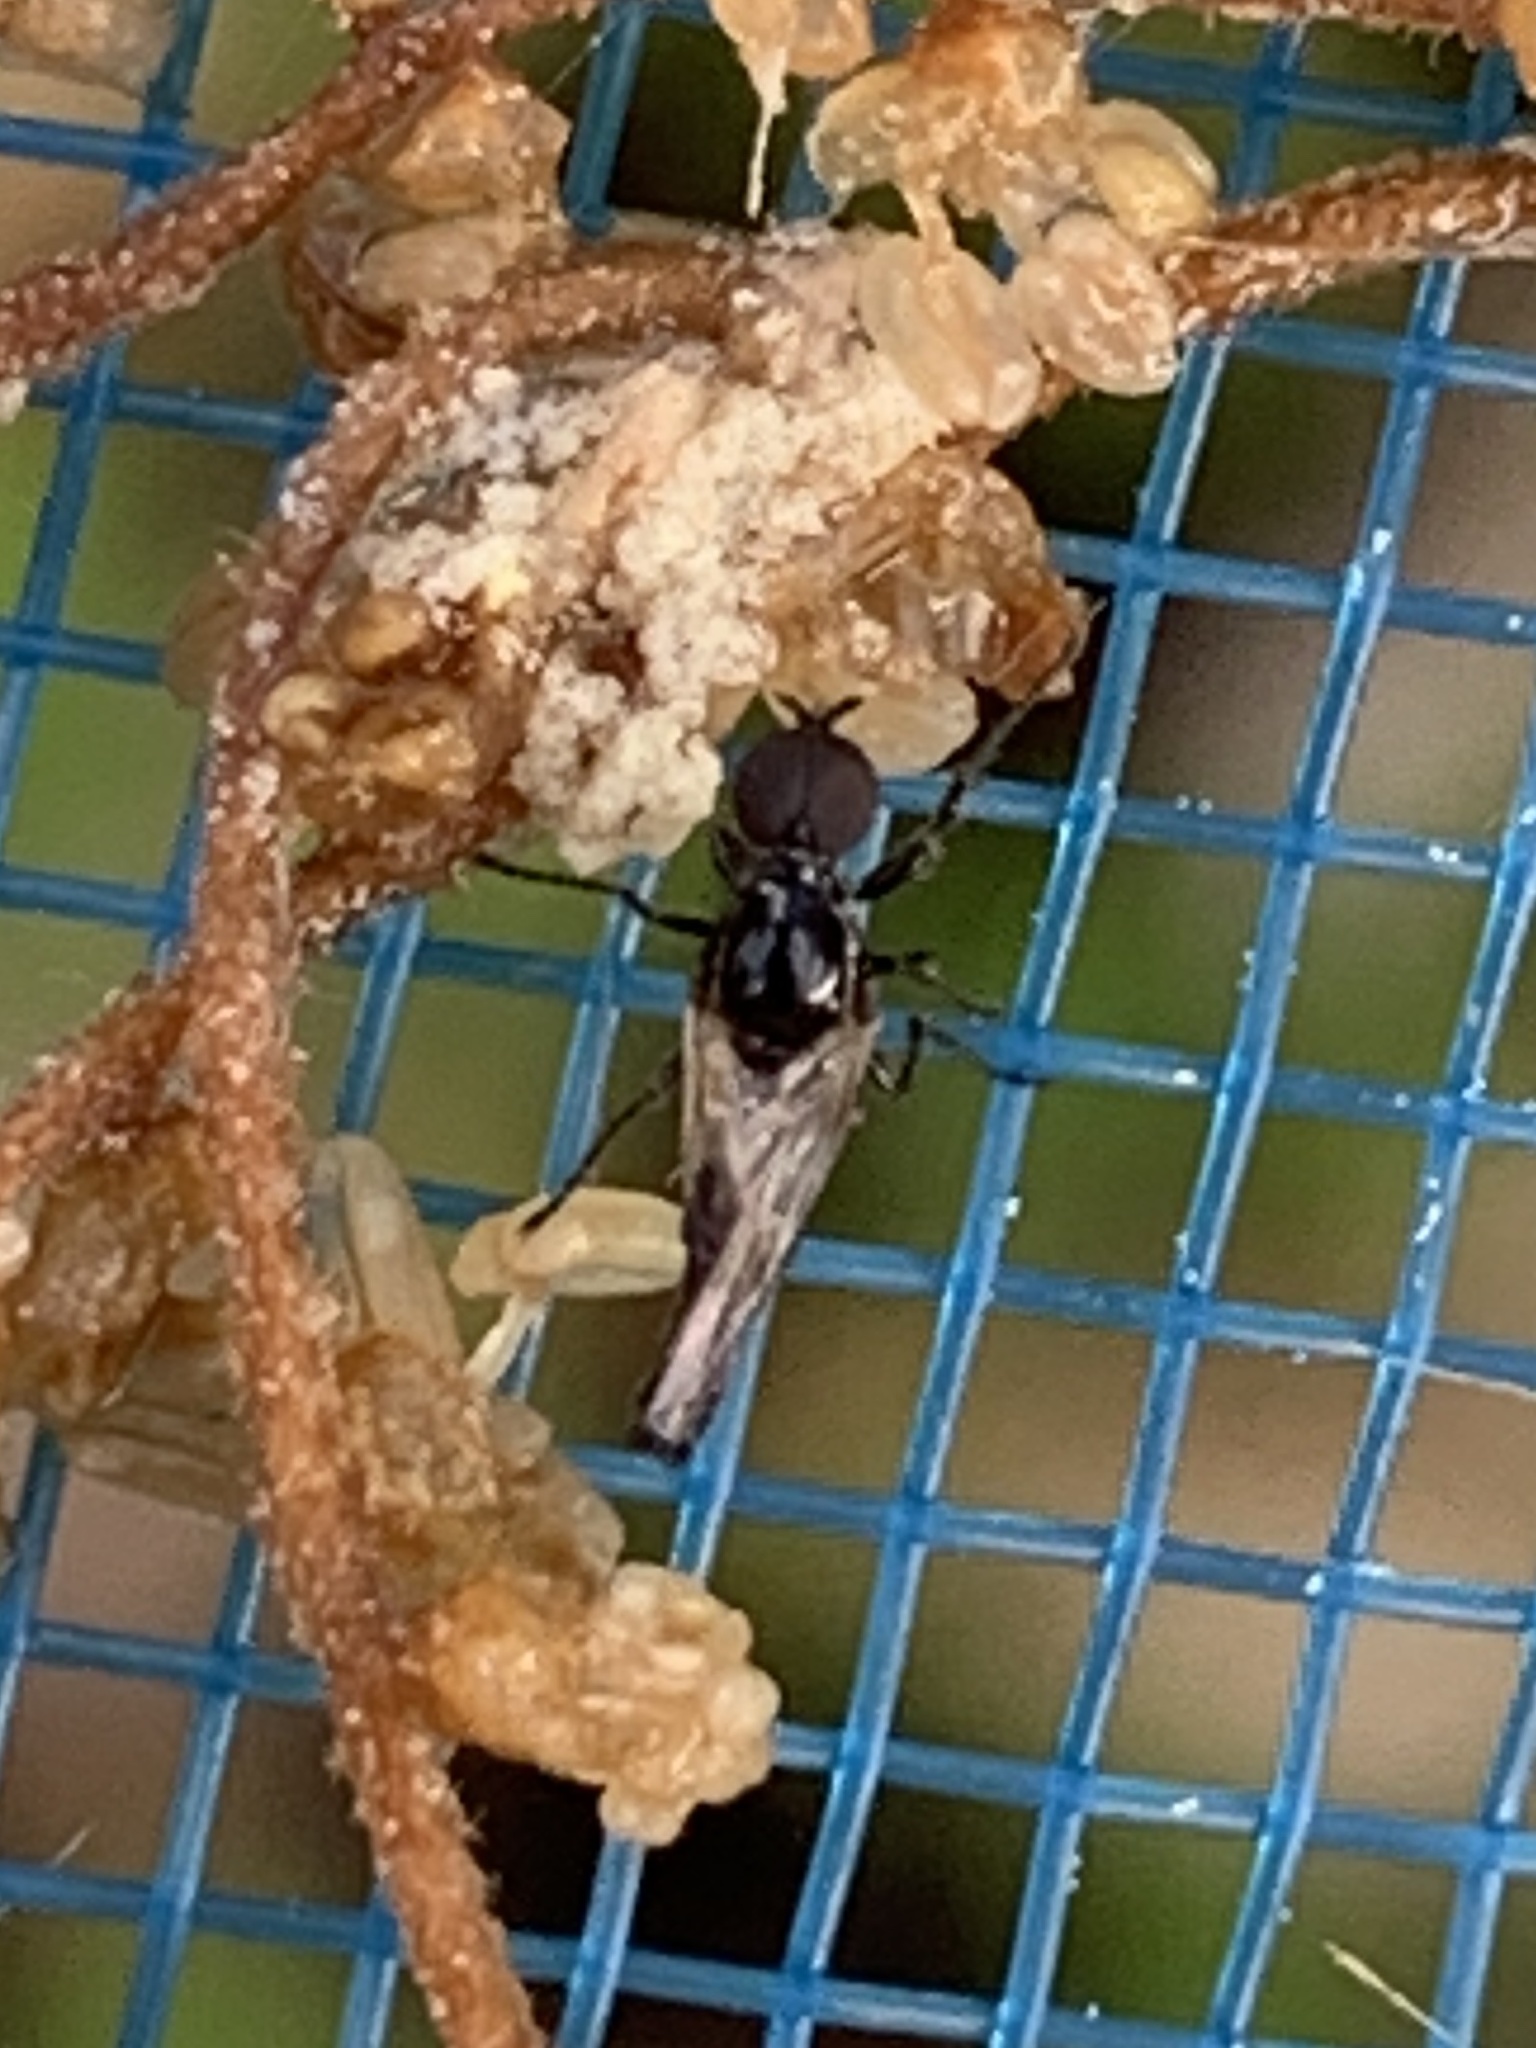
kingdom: Animalia
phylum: Arthropoda
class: Insecta
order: Diptera
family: Bibionidae
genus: Dilophus
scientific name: Dilophus tibialis
